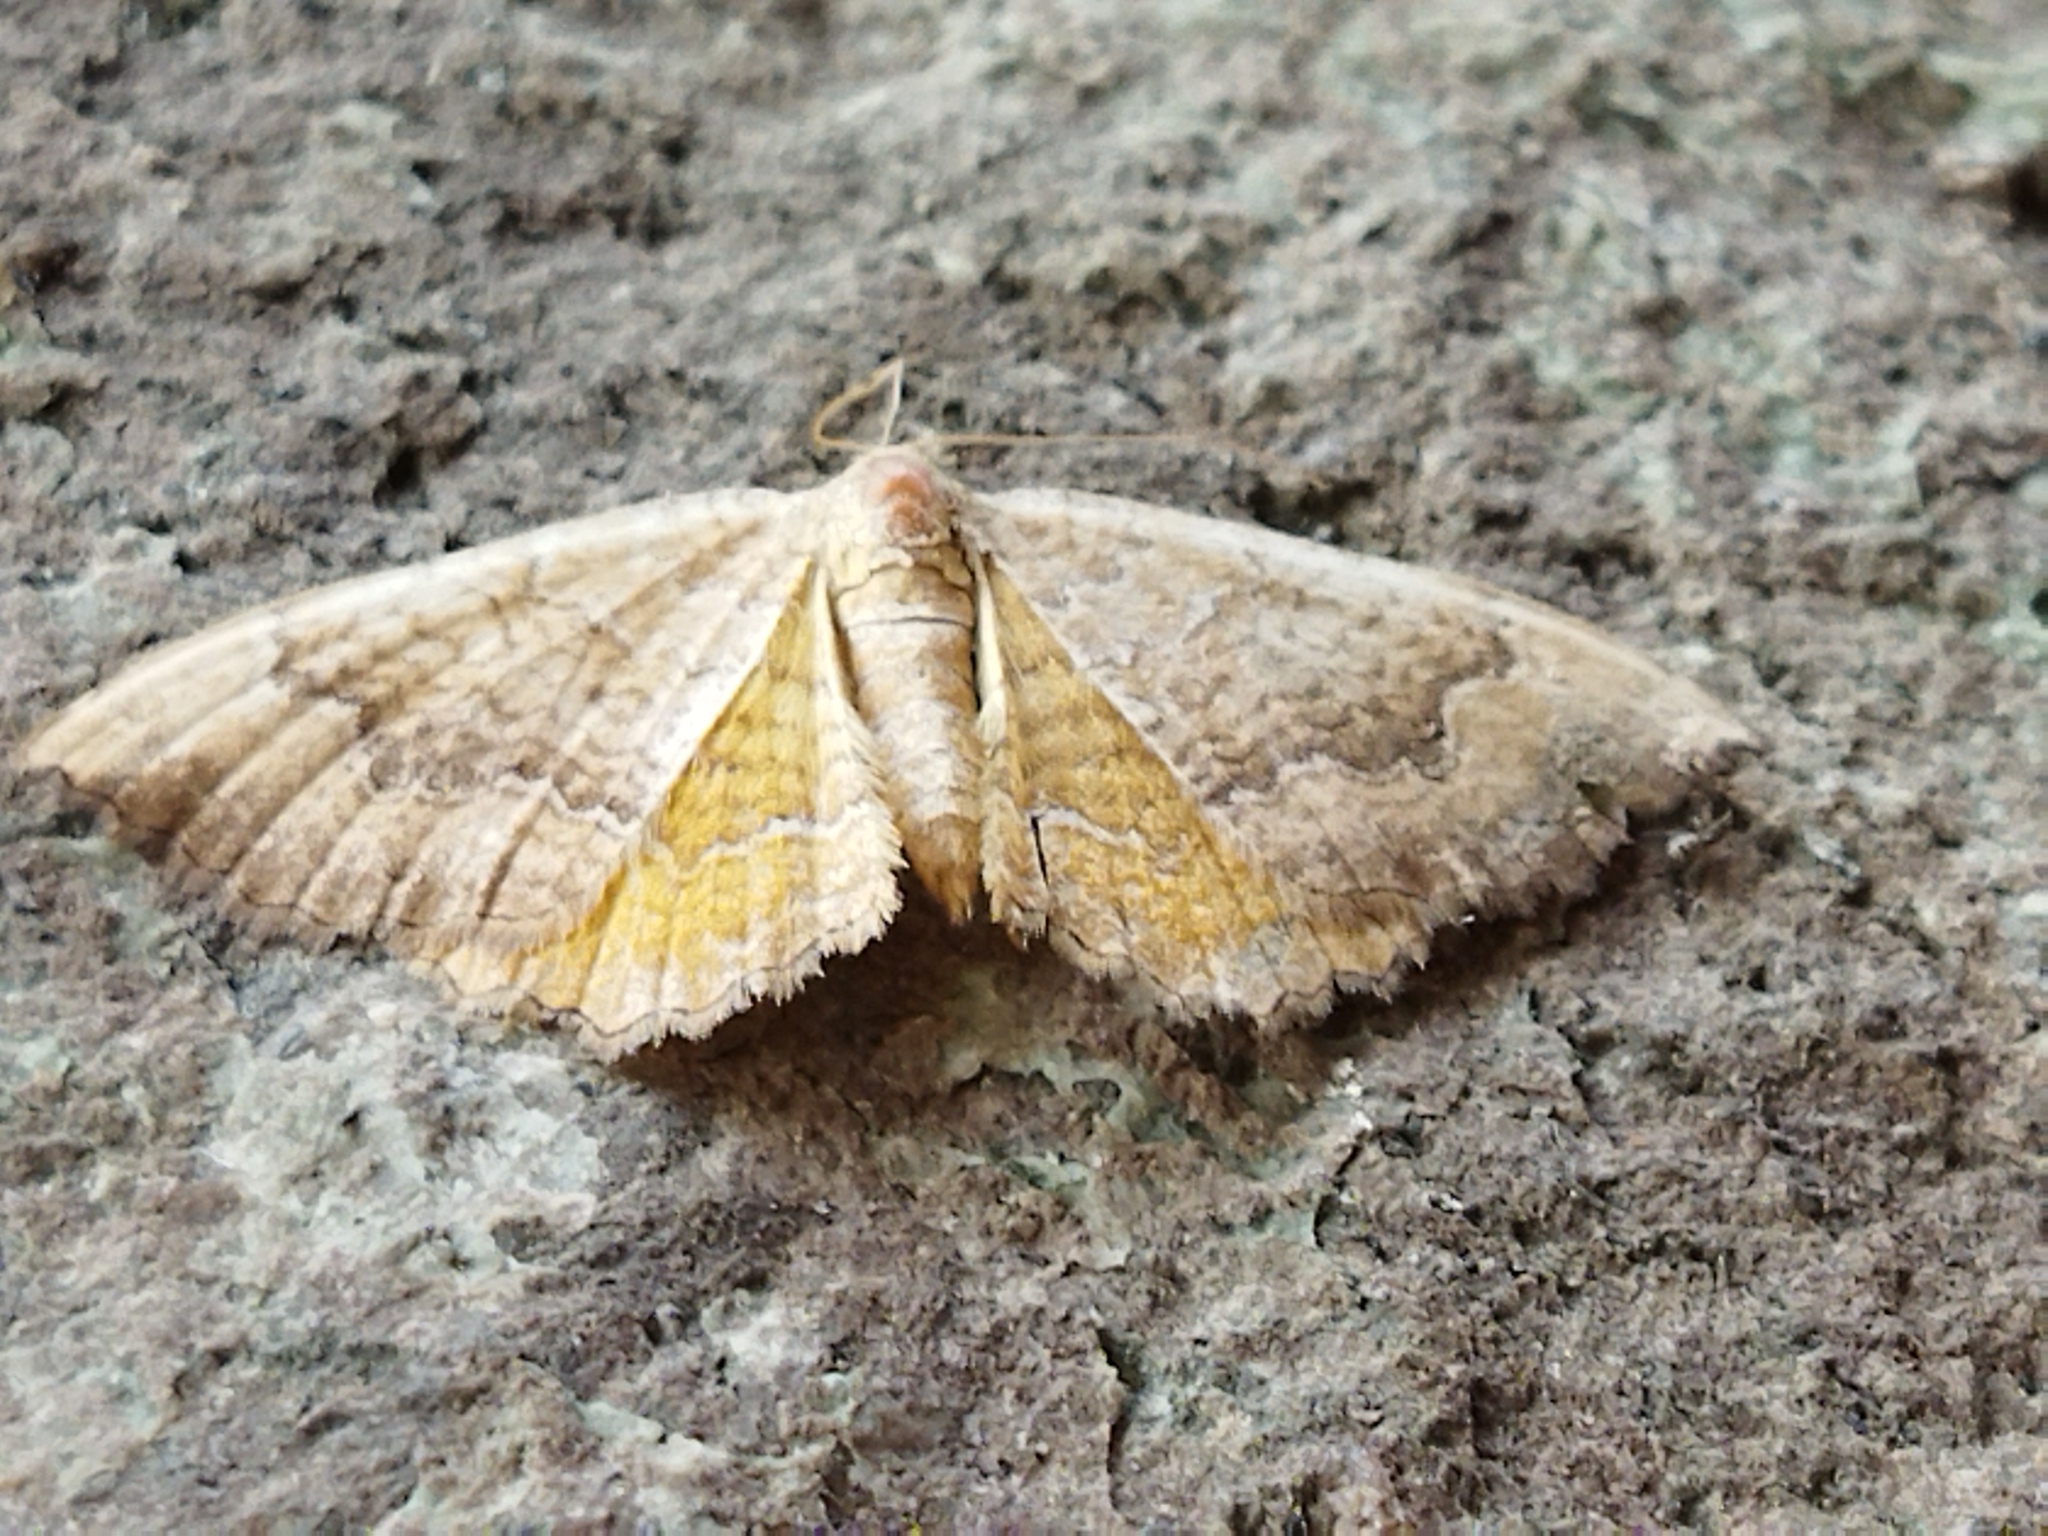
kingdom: Animalia
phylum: Arthropoda
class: Insecta
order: Lepidoptera
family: Geometridae
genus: Camptogramma
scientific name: Camptogramma bilineata
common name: Yellow shell
